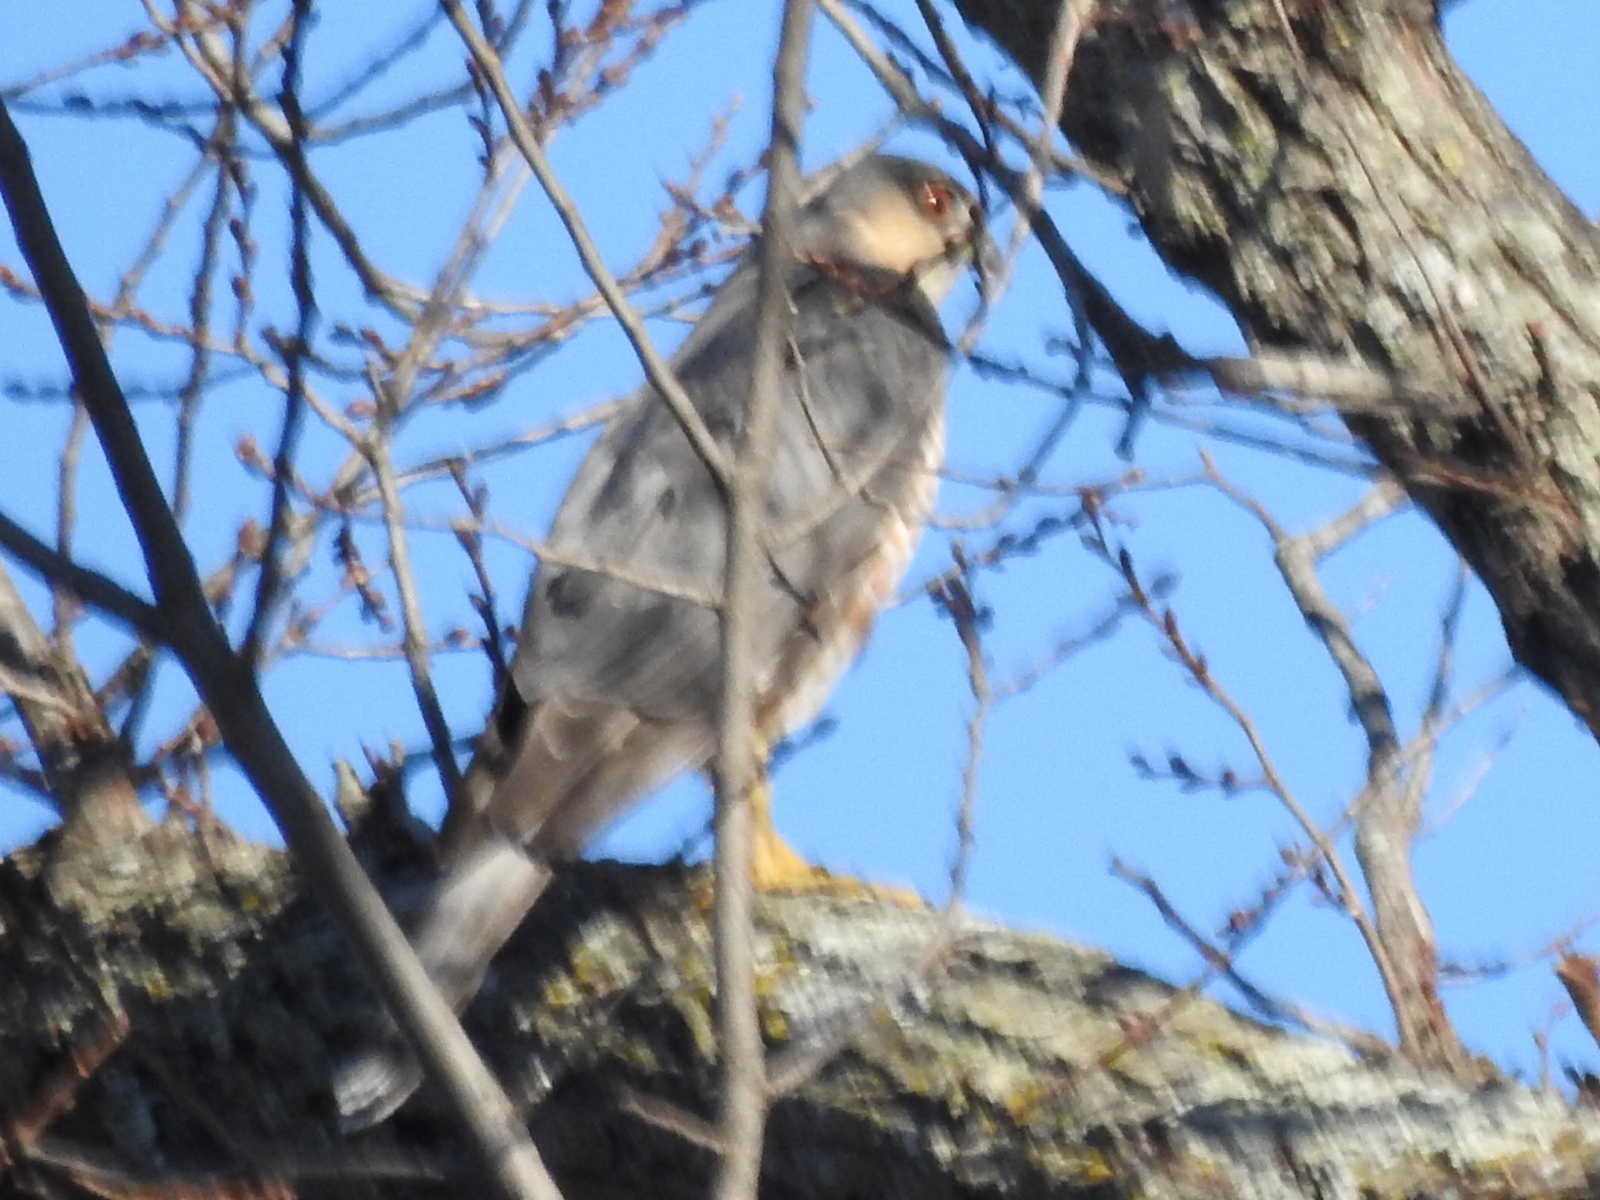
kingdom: Animalia
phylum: Chordata
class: Aves
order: Accipitriformes
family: Accipitridae
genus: Accipiter
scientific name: Accipiter cooperii
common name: Cooper's hawk
